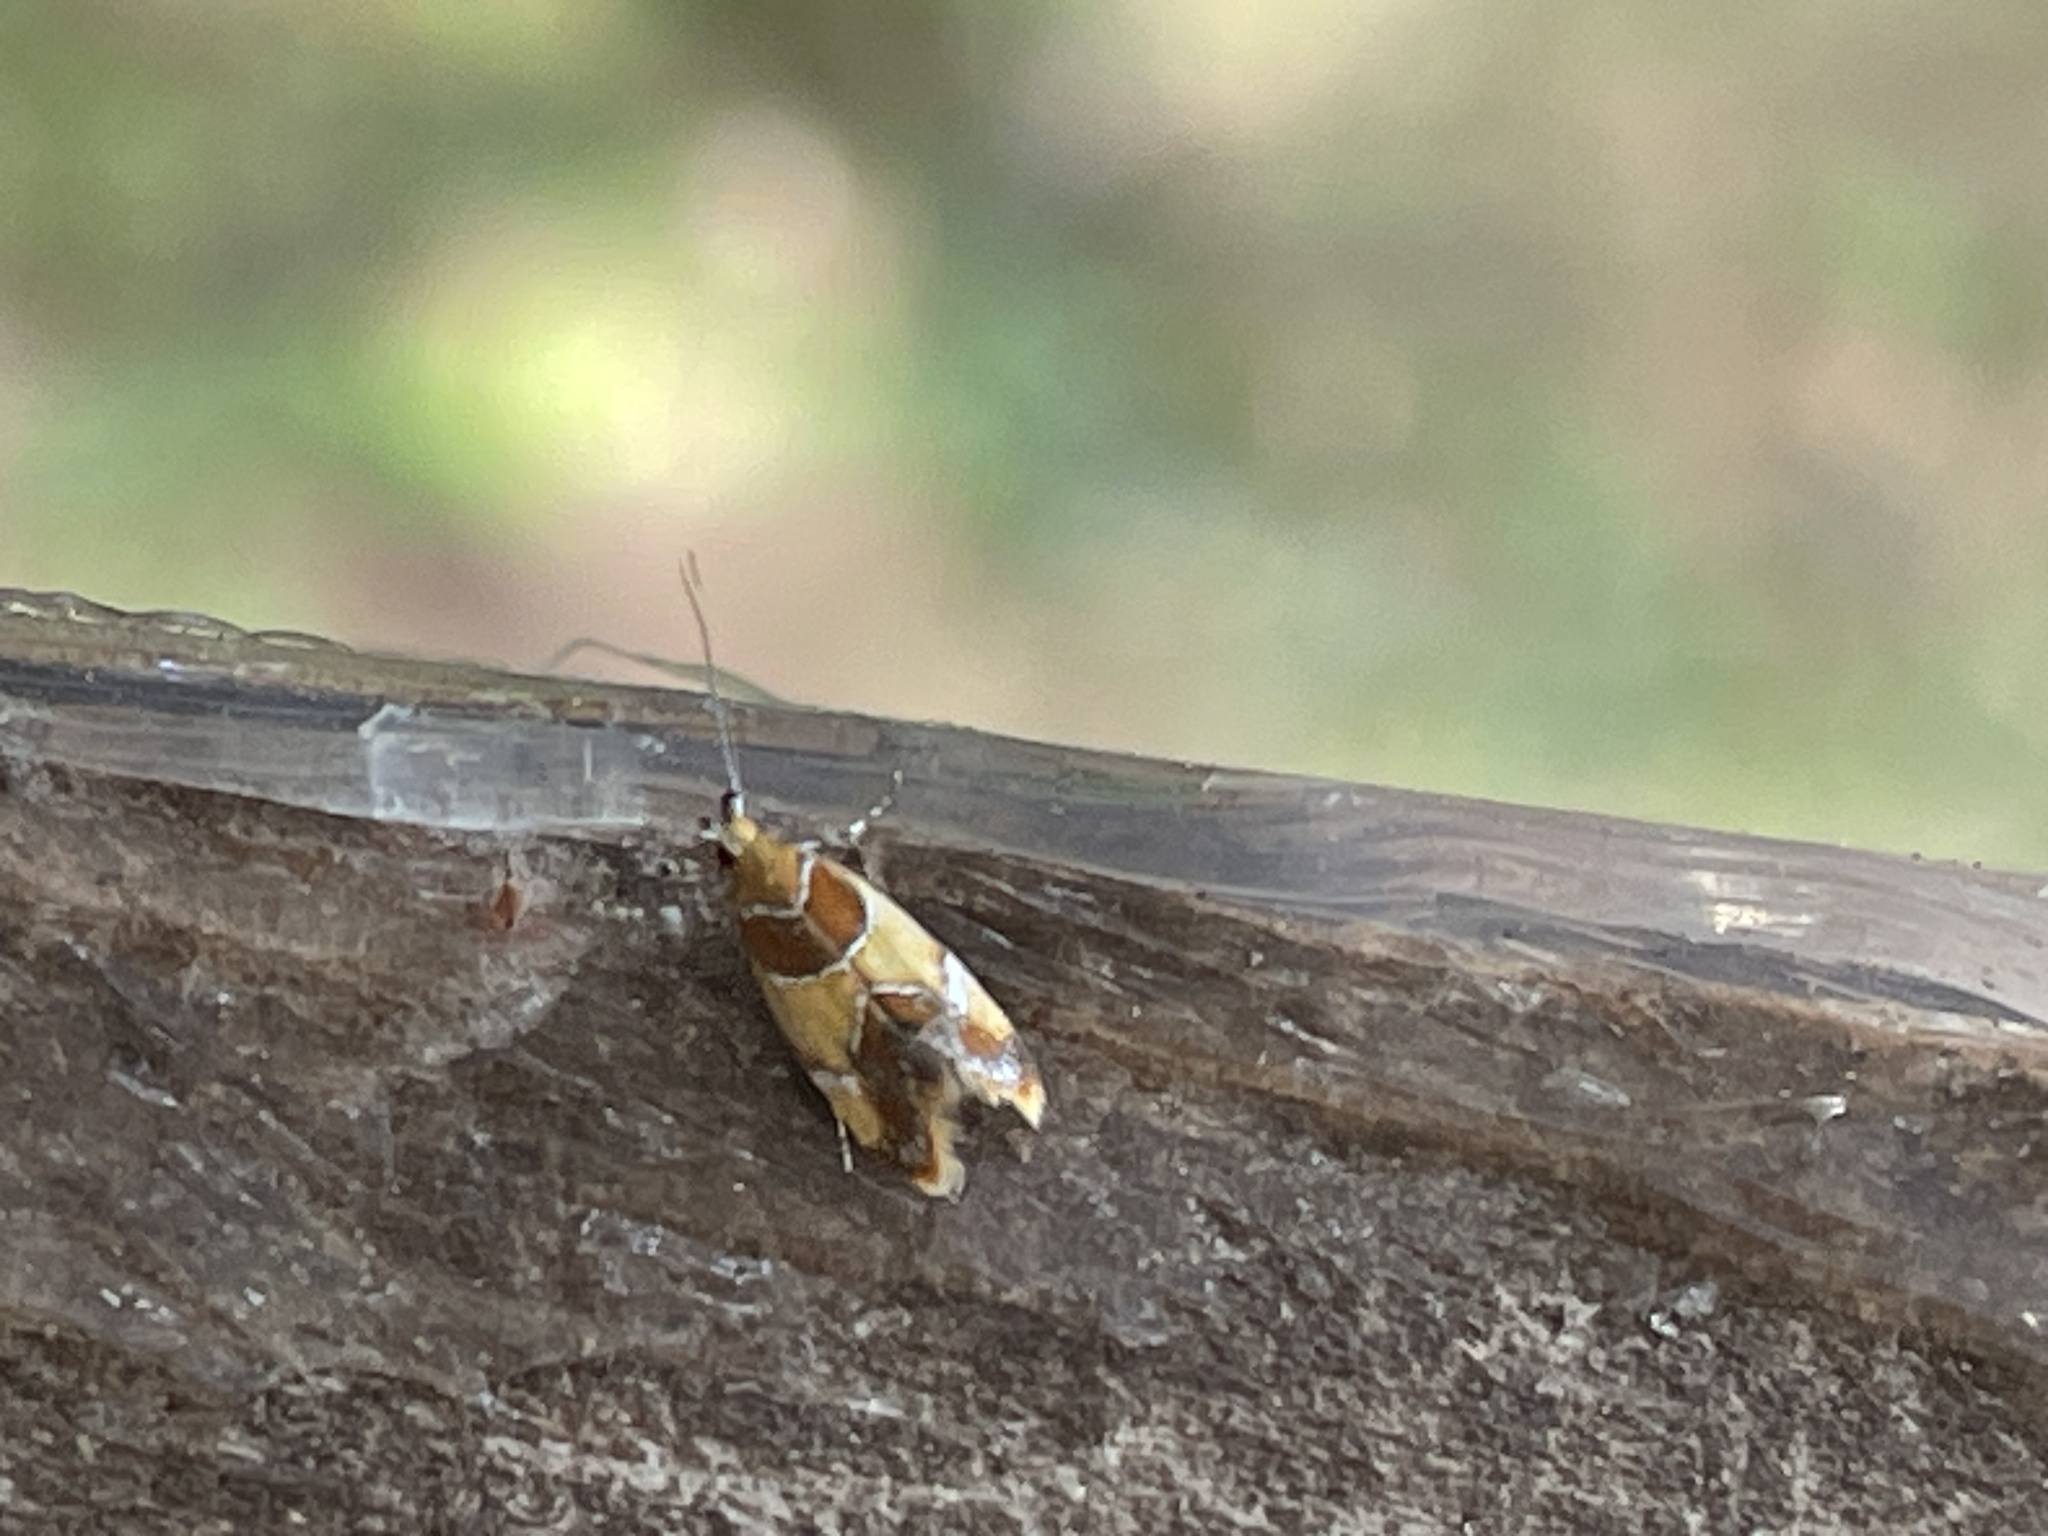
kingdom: Animalia
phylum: Arthropoda
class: Insecta
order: Lepidoptera
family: Oecophoridae
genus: Callima
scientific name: Callima argenticinctella
